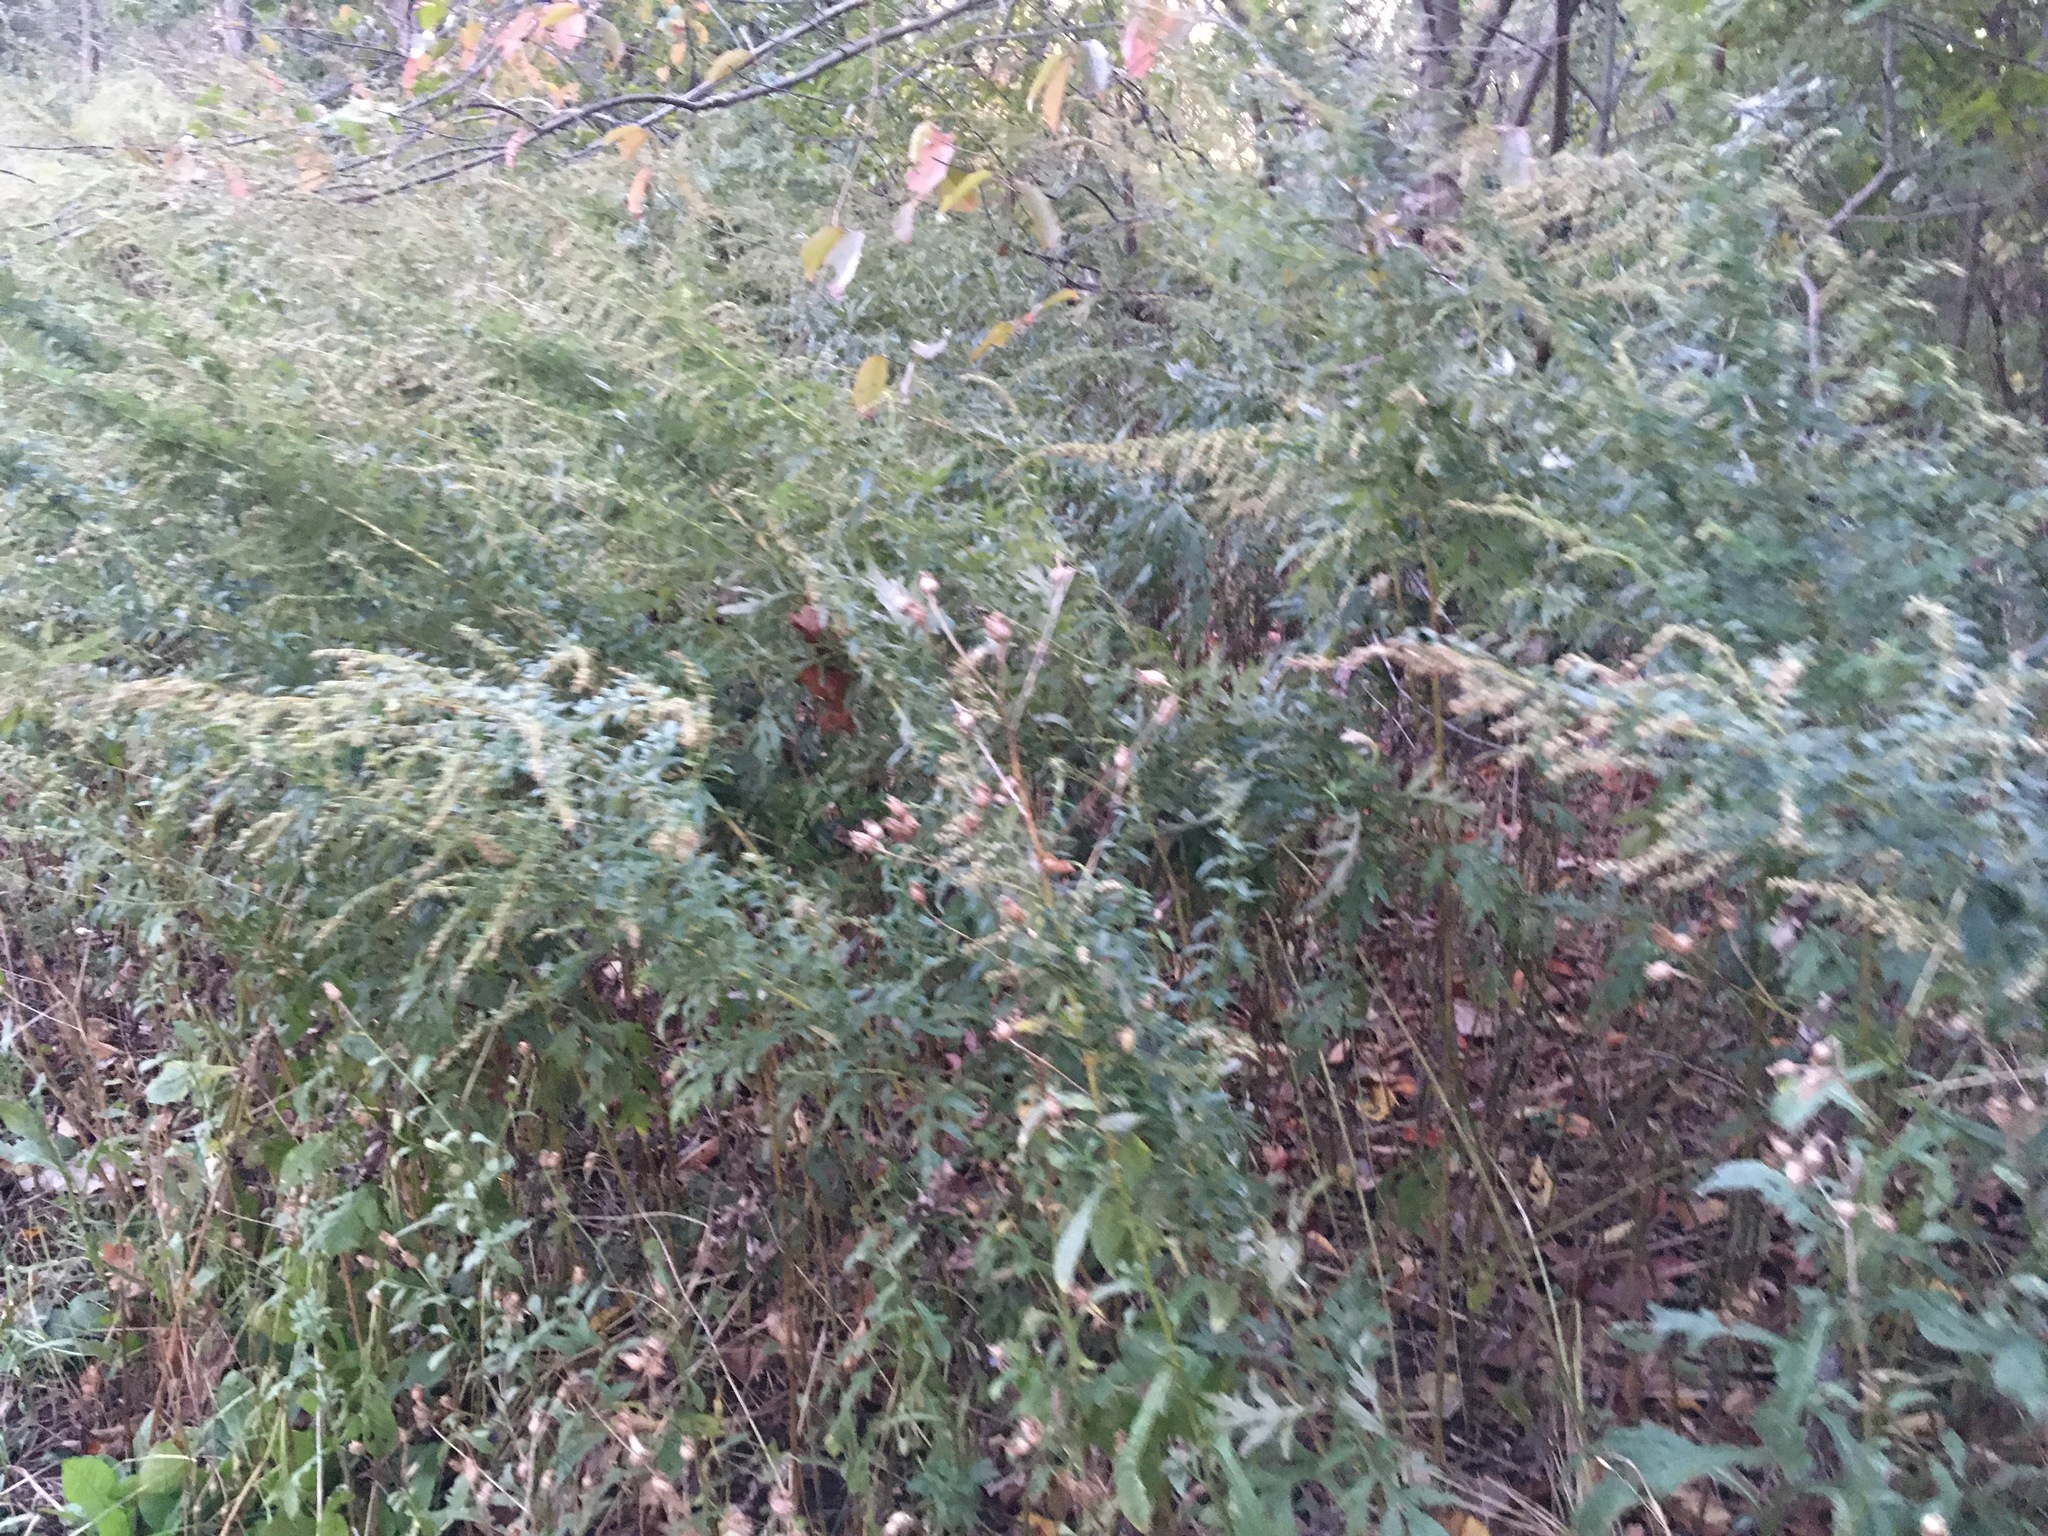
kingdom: Plantae
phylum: Tracheophyta
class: Magnoliopsida
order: Asterales
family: Asteraceae
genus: Artemisia
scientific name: Artemisia vulgaris
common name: Mugwort
